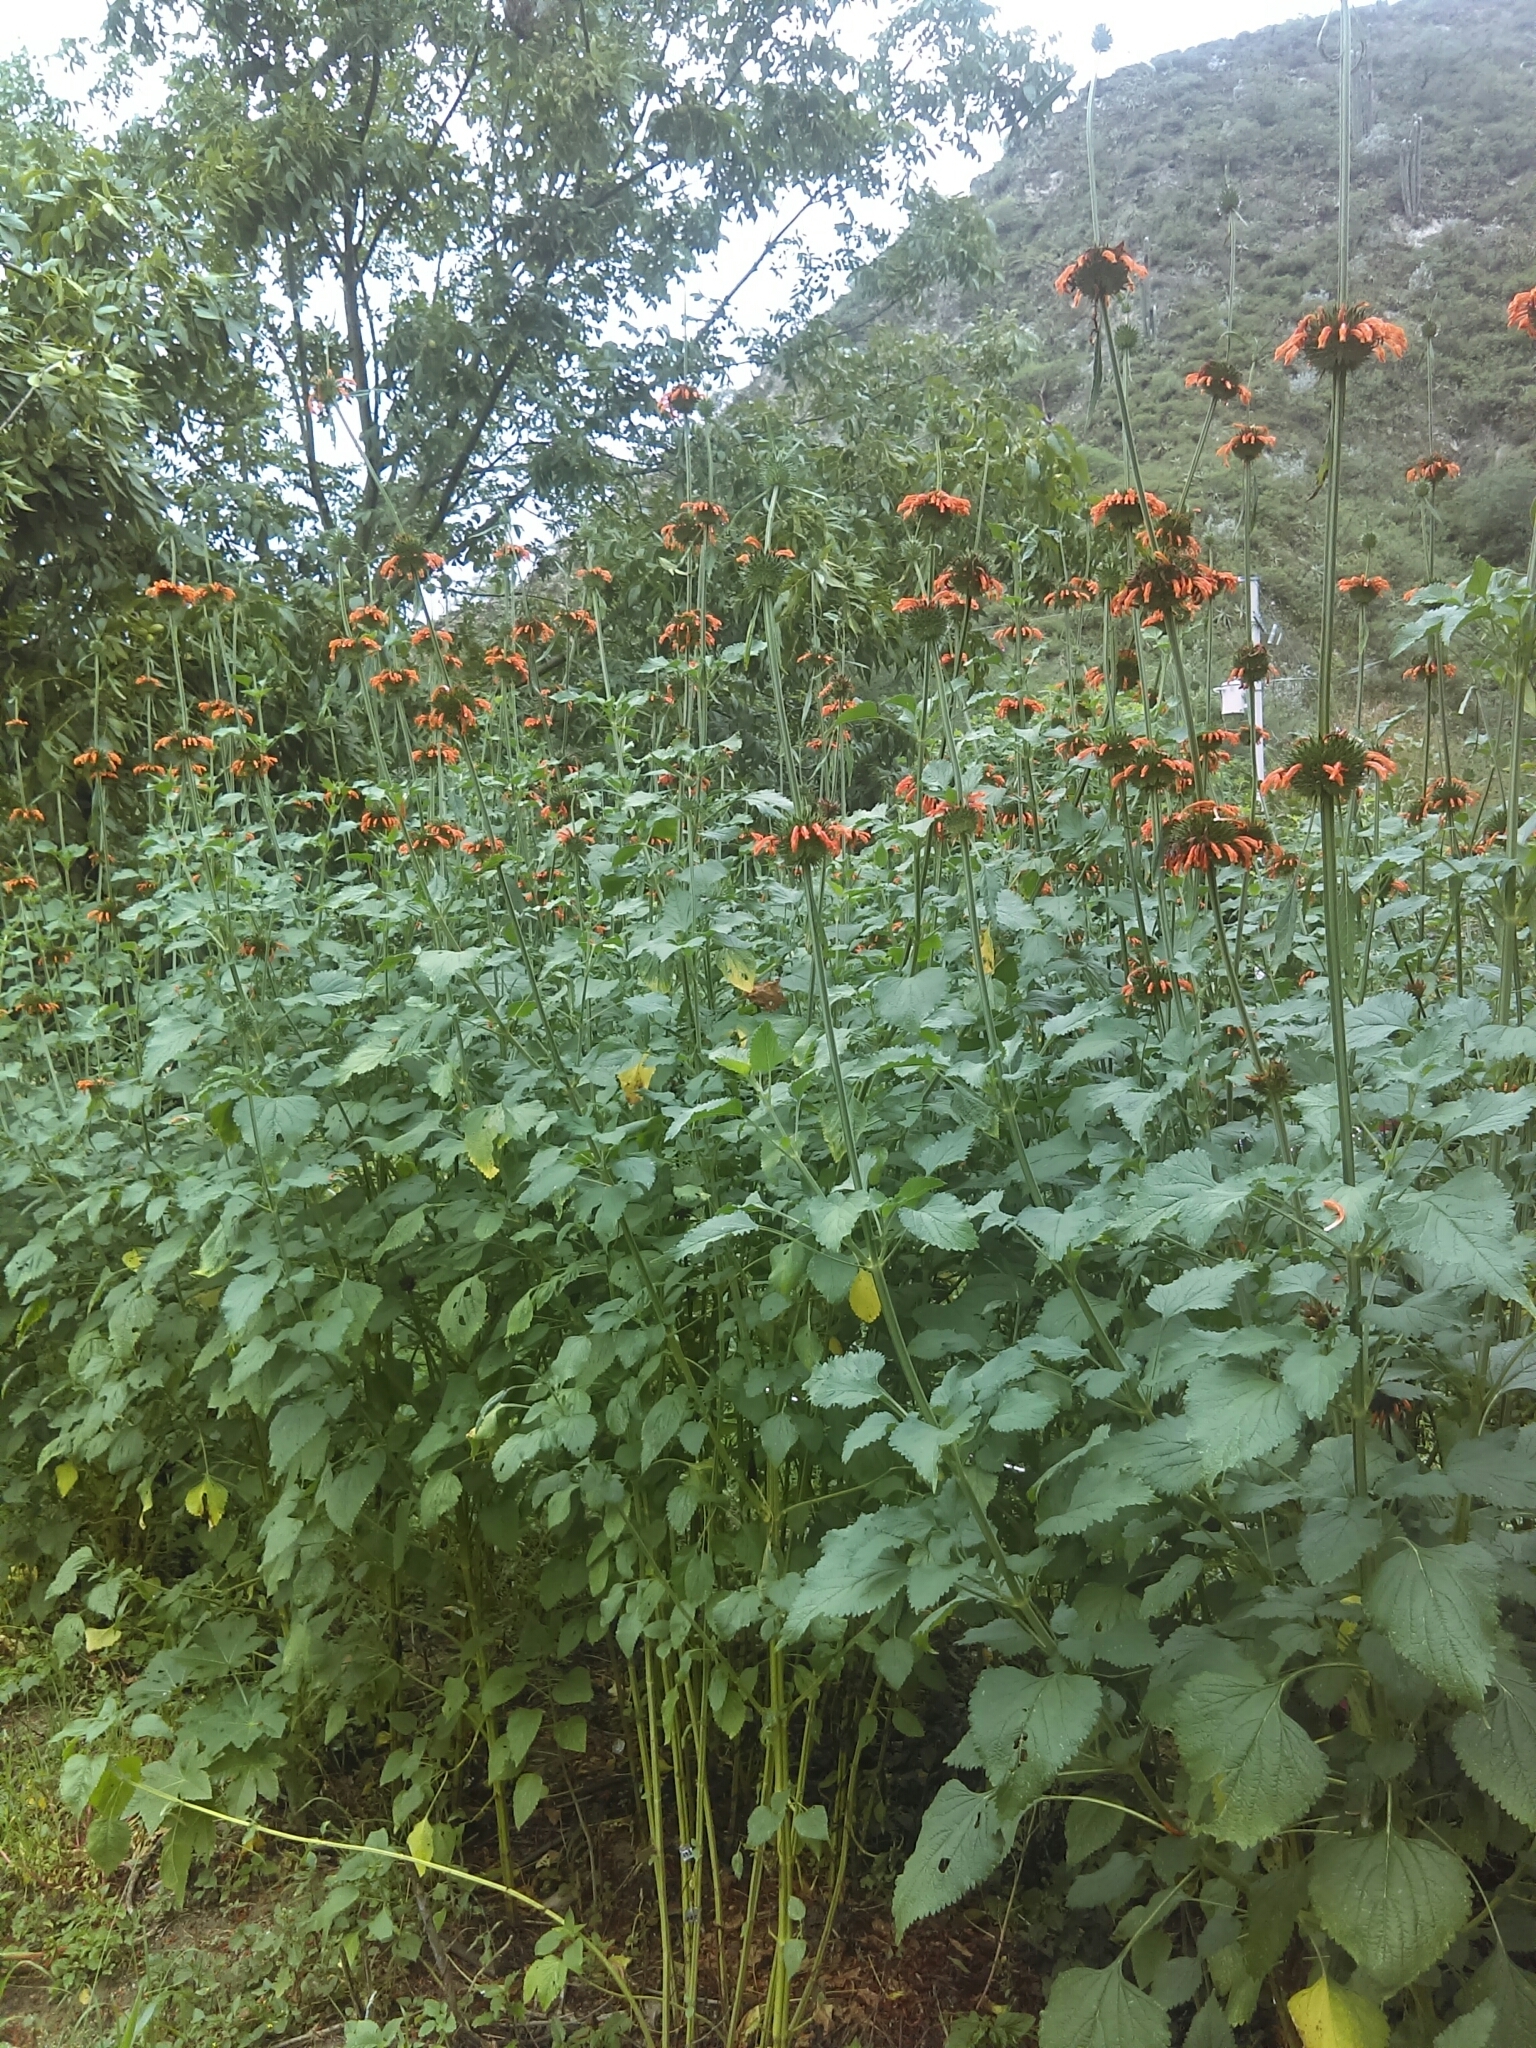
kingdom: Plantae
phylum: Tracheophyta
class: Magnoliopsida
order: Lamiales
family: Lamiaceae
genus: Leonotis
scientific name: Leonotis nepetifolia
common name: Christmas candlestick
